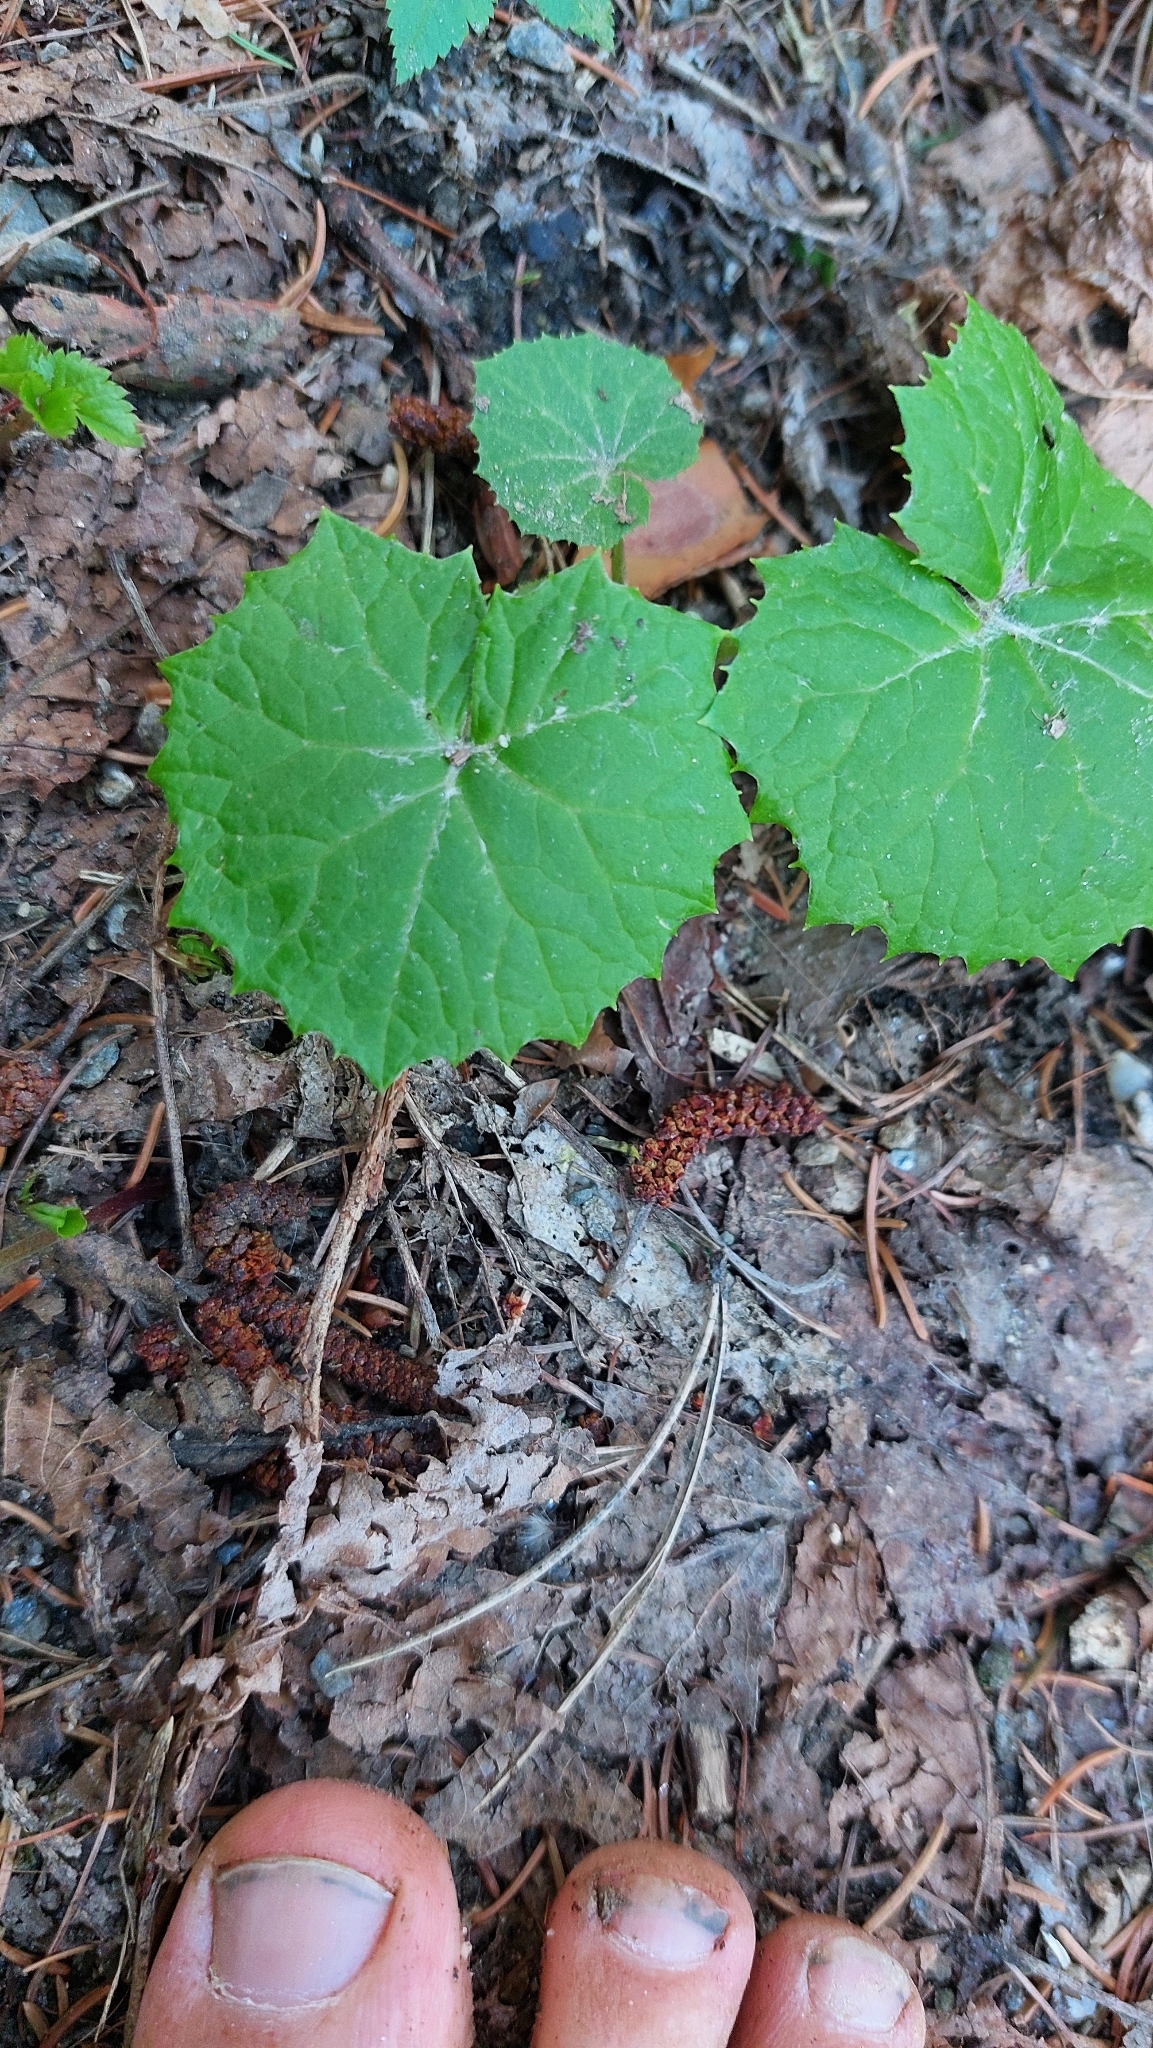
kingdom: Plantae
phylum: Tracheophyta
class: Magnoliopsida
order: Asterales
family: Asteraceae
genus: Petasites
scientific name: Petasites albus
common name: White butterbur
